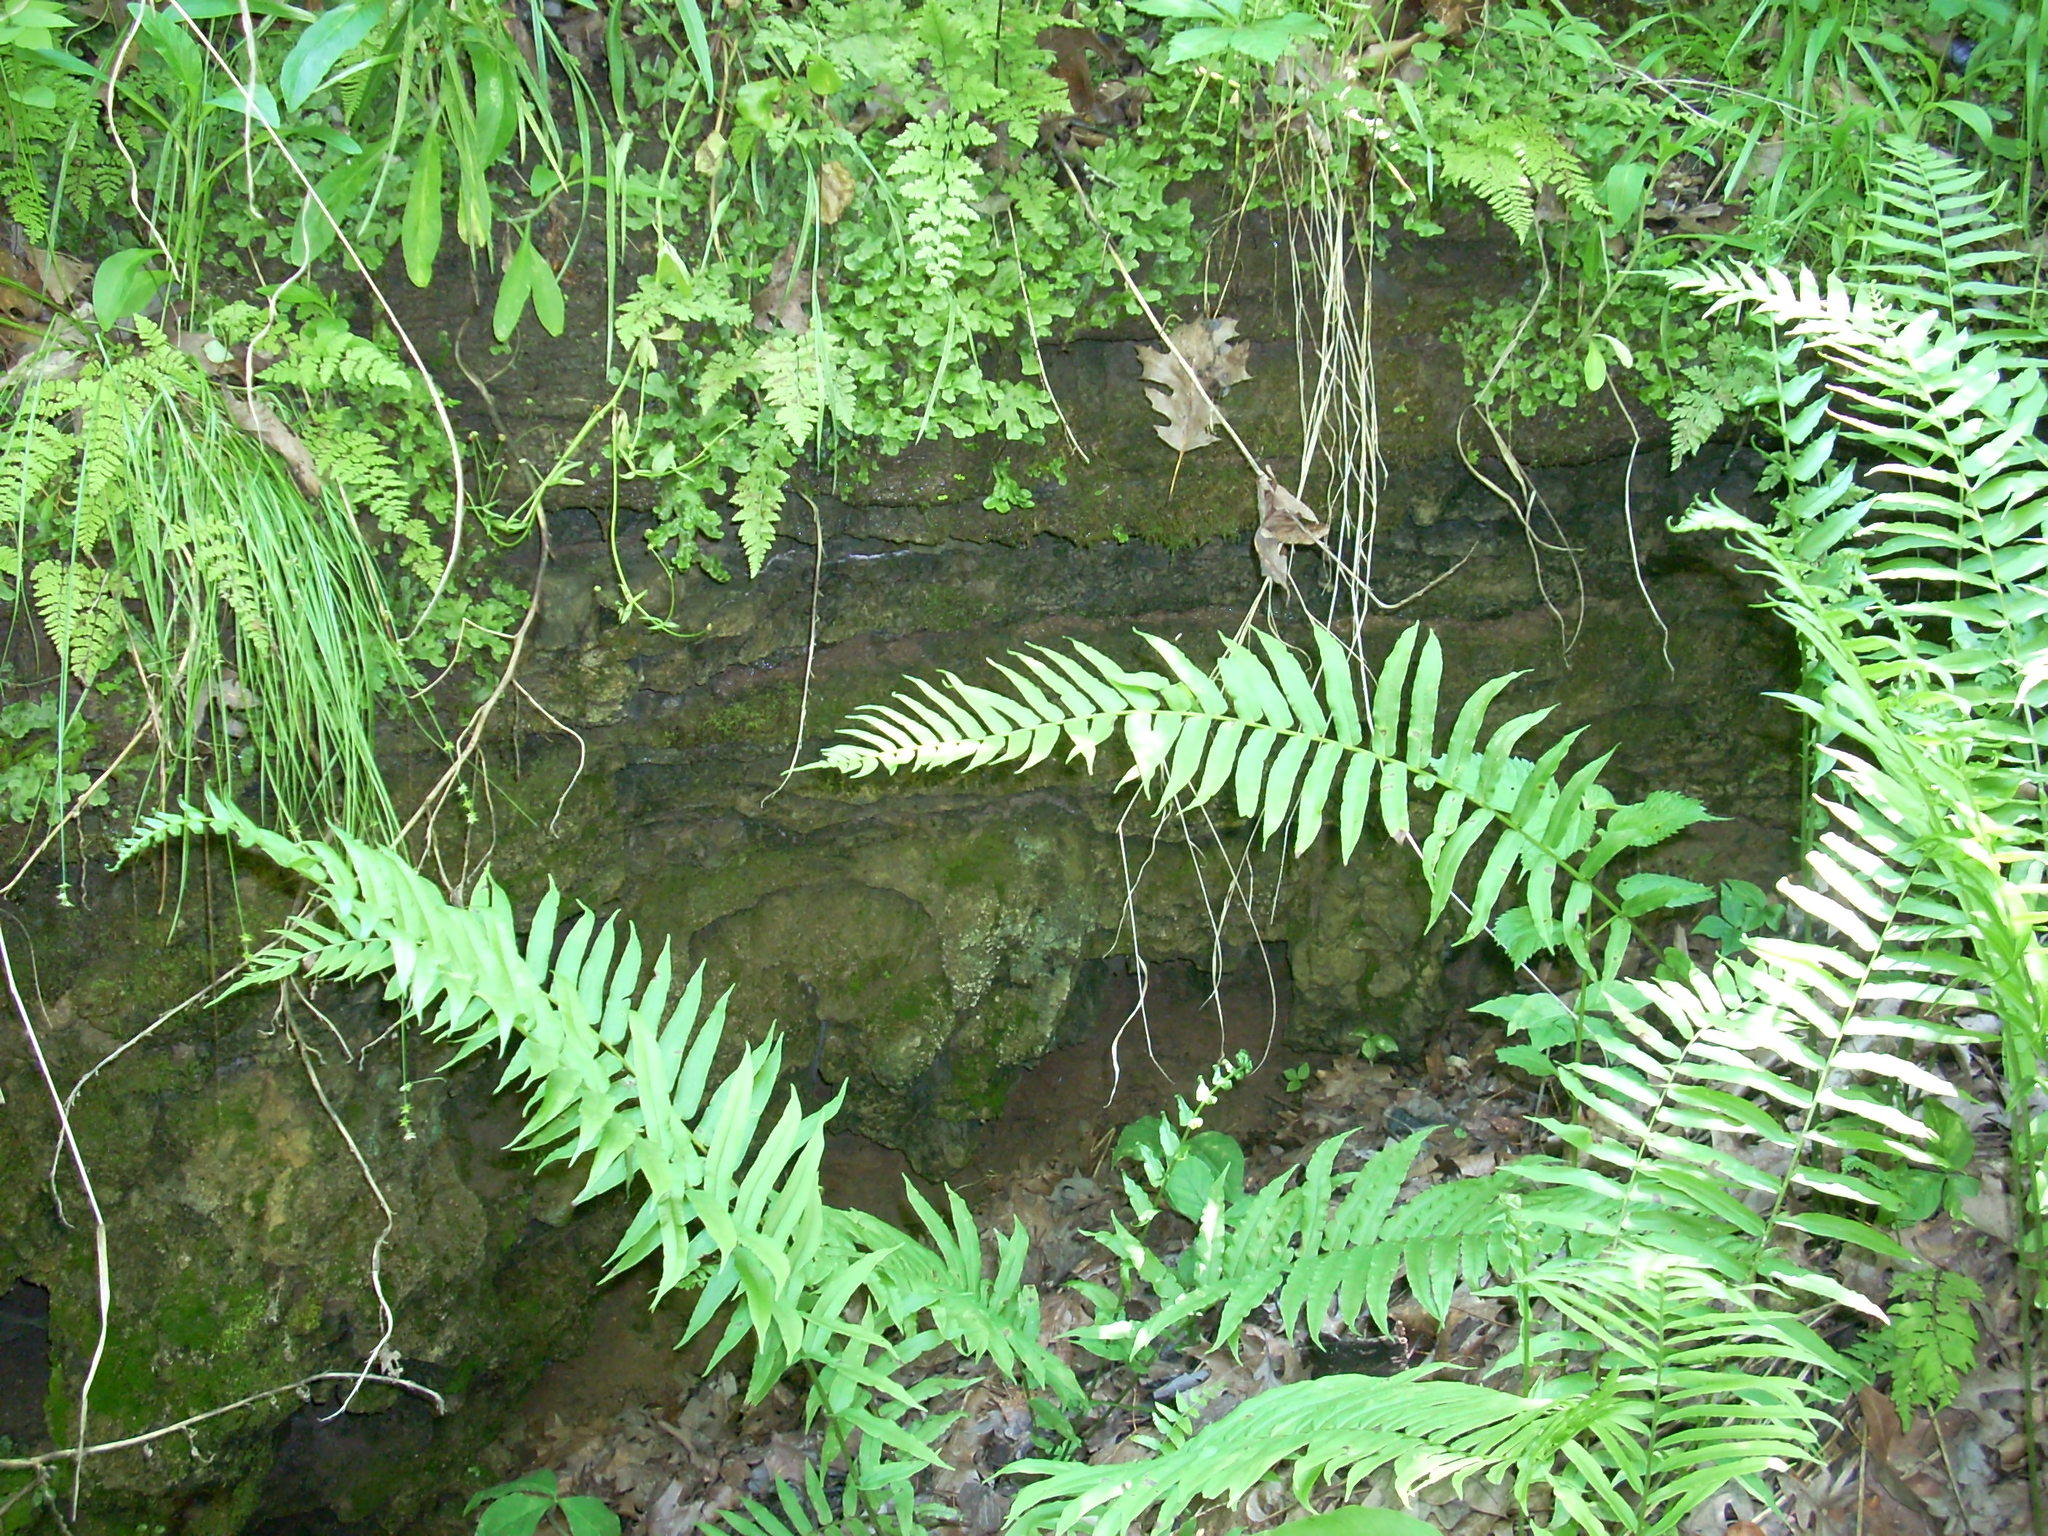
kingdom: Plantae
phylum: Tracheophyta
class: Polypodiopsida
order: Polypodiales
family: Diplaziopsidaceae
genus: Homalosorus
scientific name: Homalosorus pycnocarpos
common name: Glade fern
